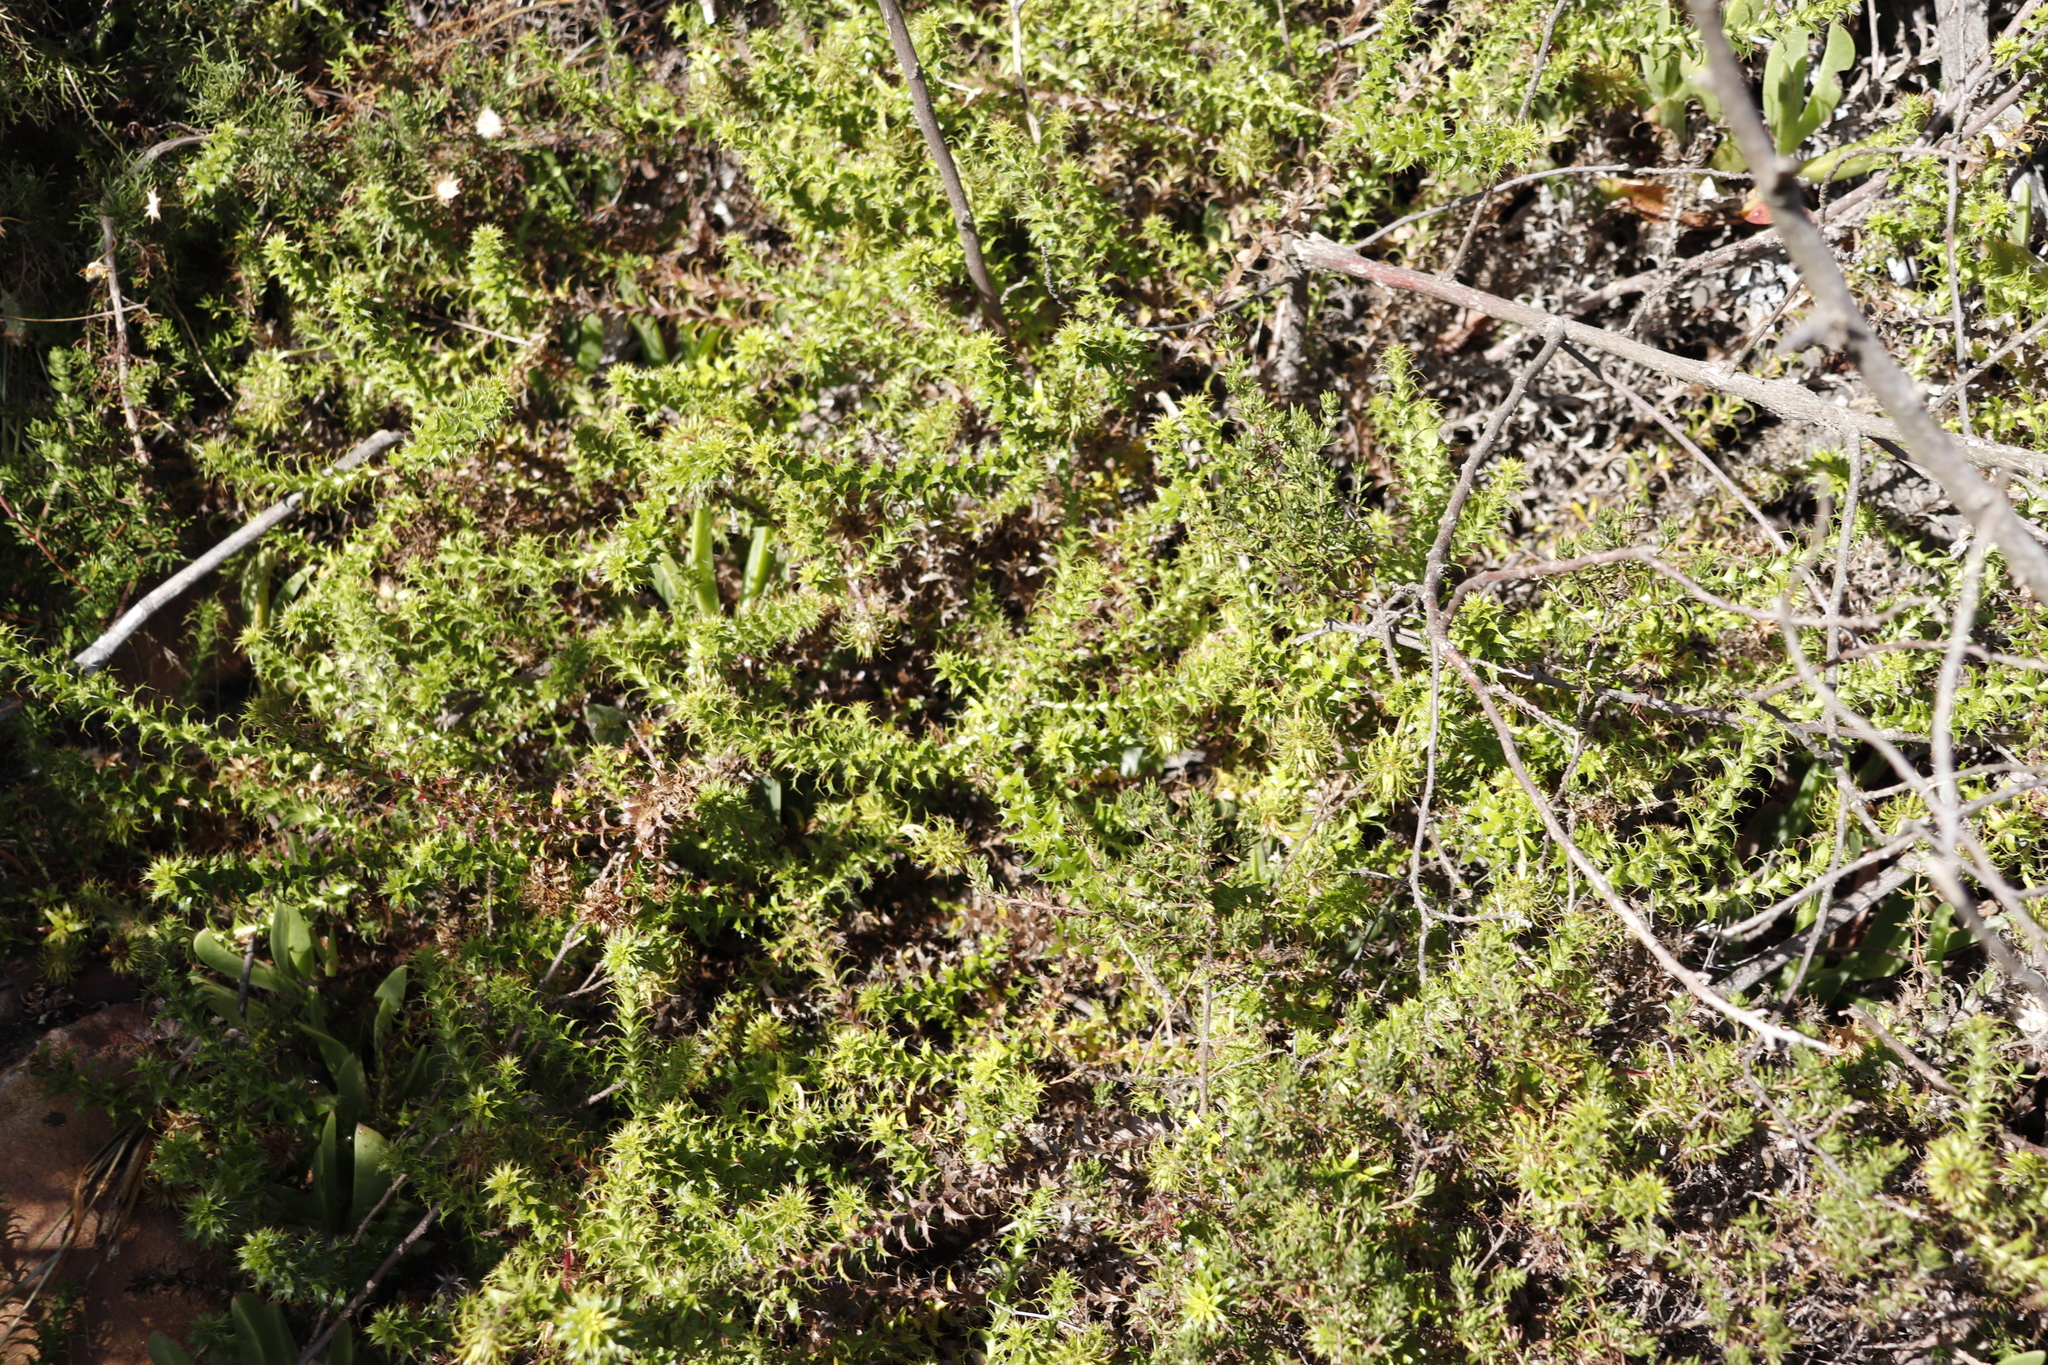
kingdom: Plantae
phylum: Tracheophyta
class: Magnoliopsida
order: Asterales
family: Asteraceae
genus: Cullumia
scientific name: Cullumia setosa
